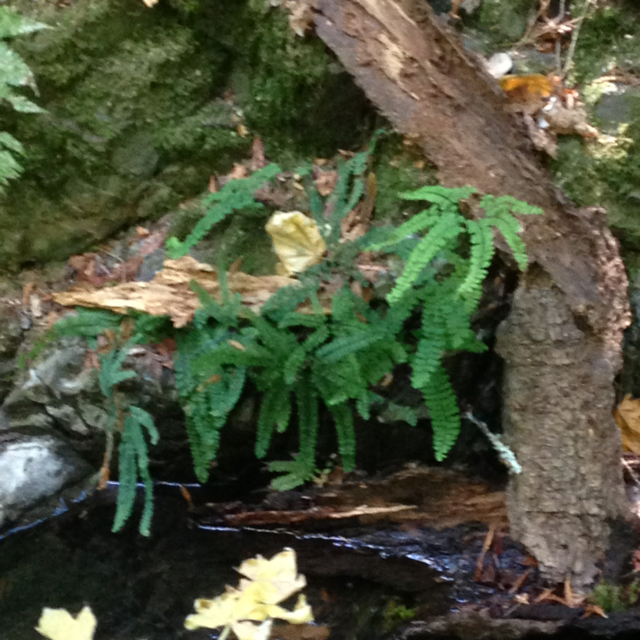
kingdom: Plantae
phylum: Tracheophyta
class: Polypodiopsida
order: Polypodiales
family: Pteridaceae
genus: Adiantum
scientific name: Adiantum aleuticum
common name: Aleutian maidenhair fern
